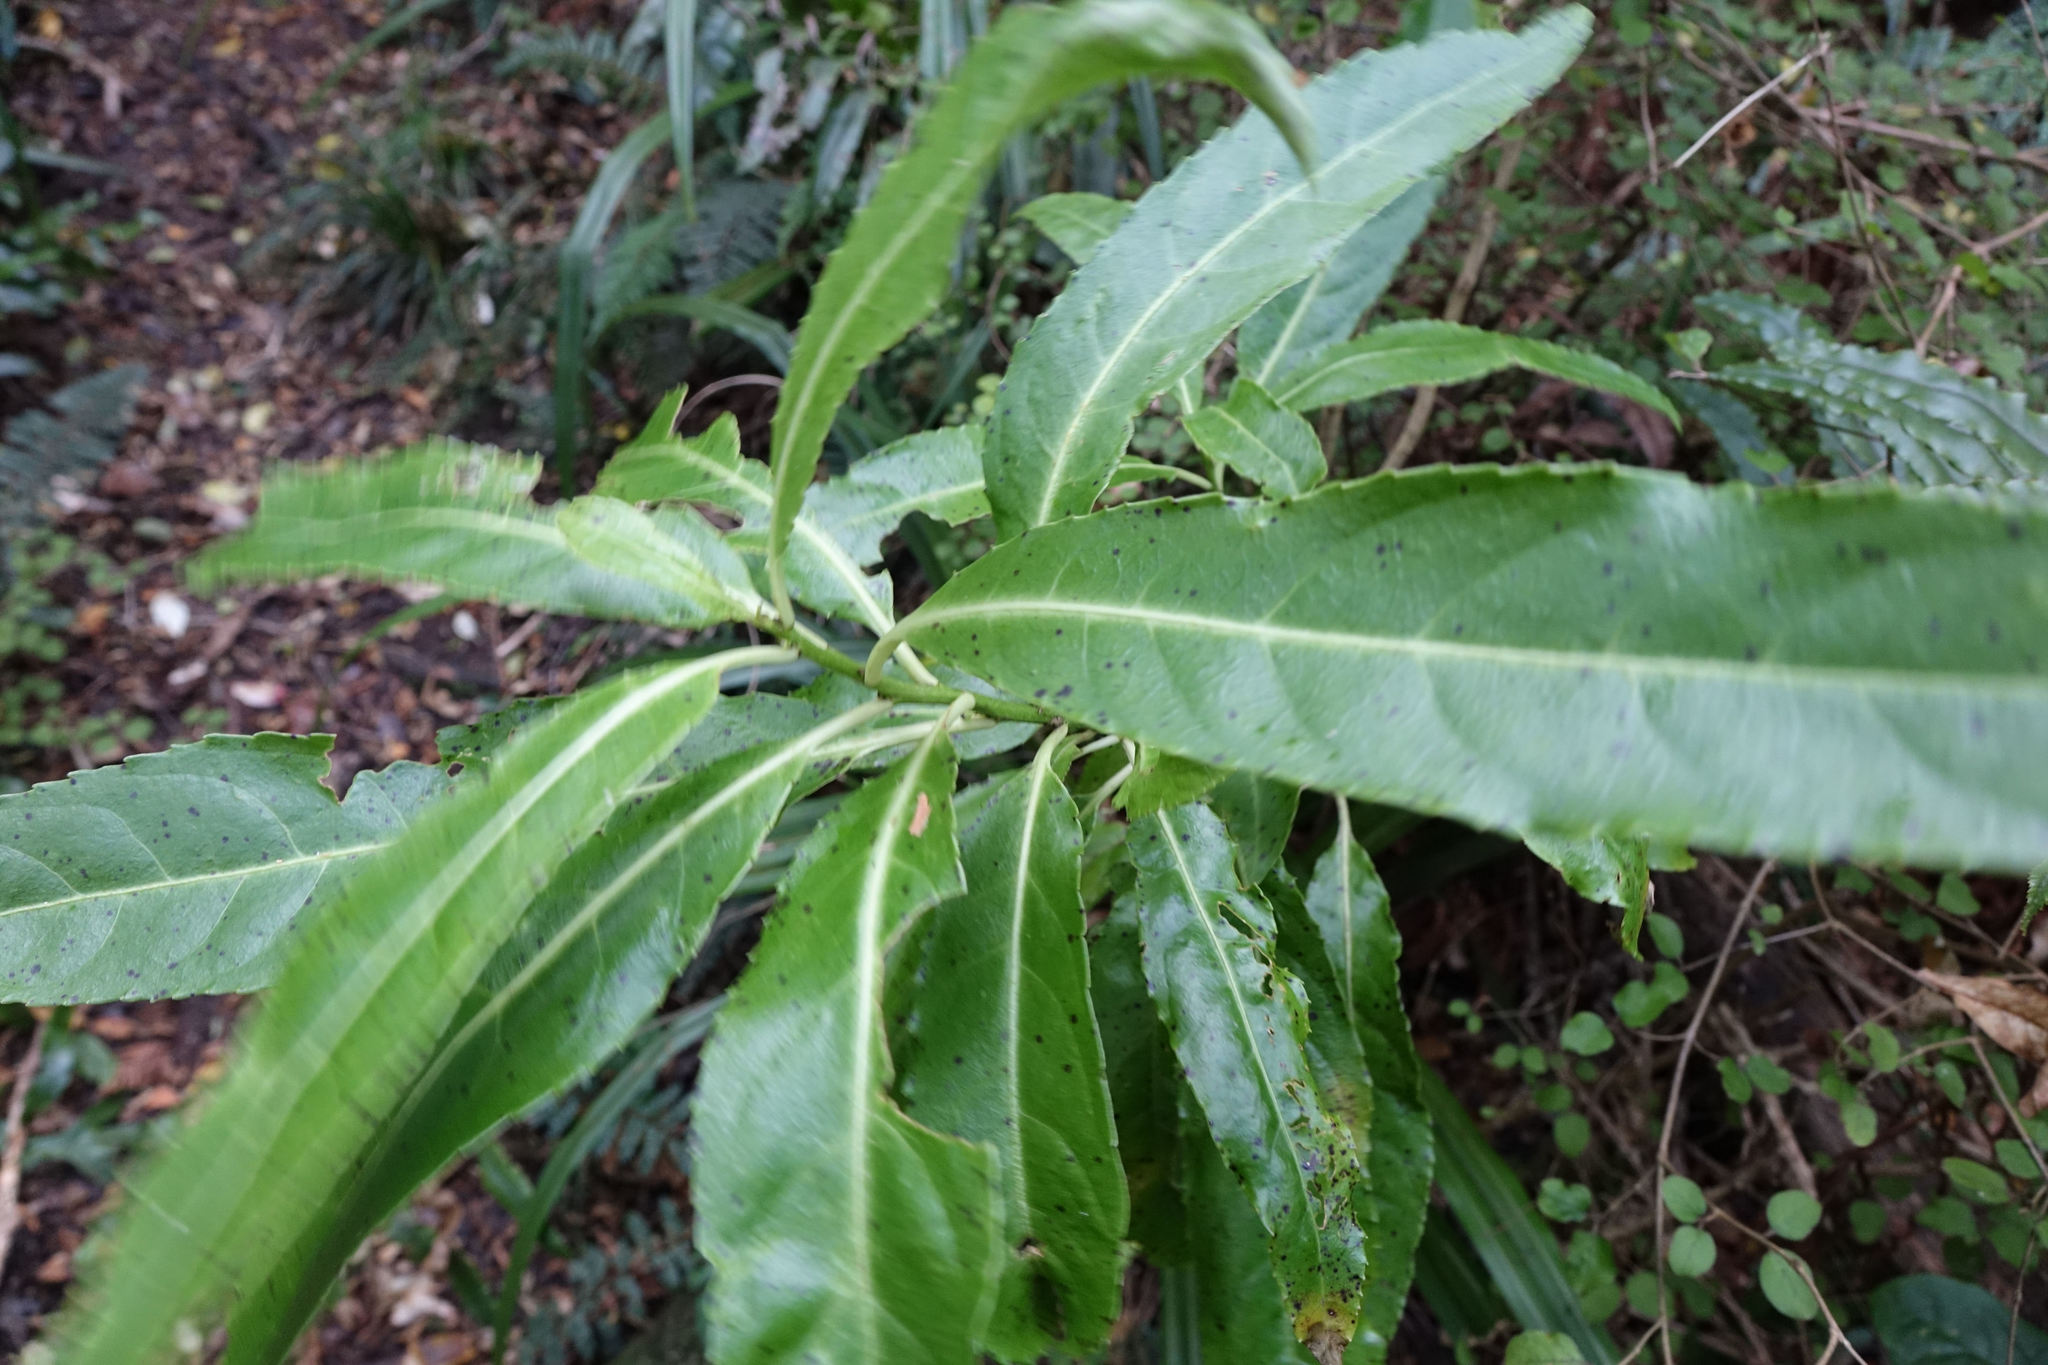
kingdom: Plantae
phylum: Tracheophyta
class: Magnoliopsida
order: Malpighiales
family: Violaceae
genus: Melicytus
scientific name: Melicytus lanceolatus
